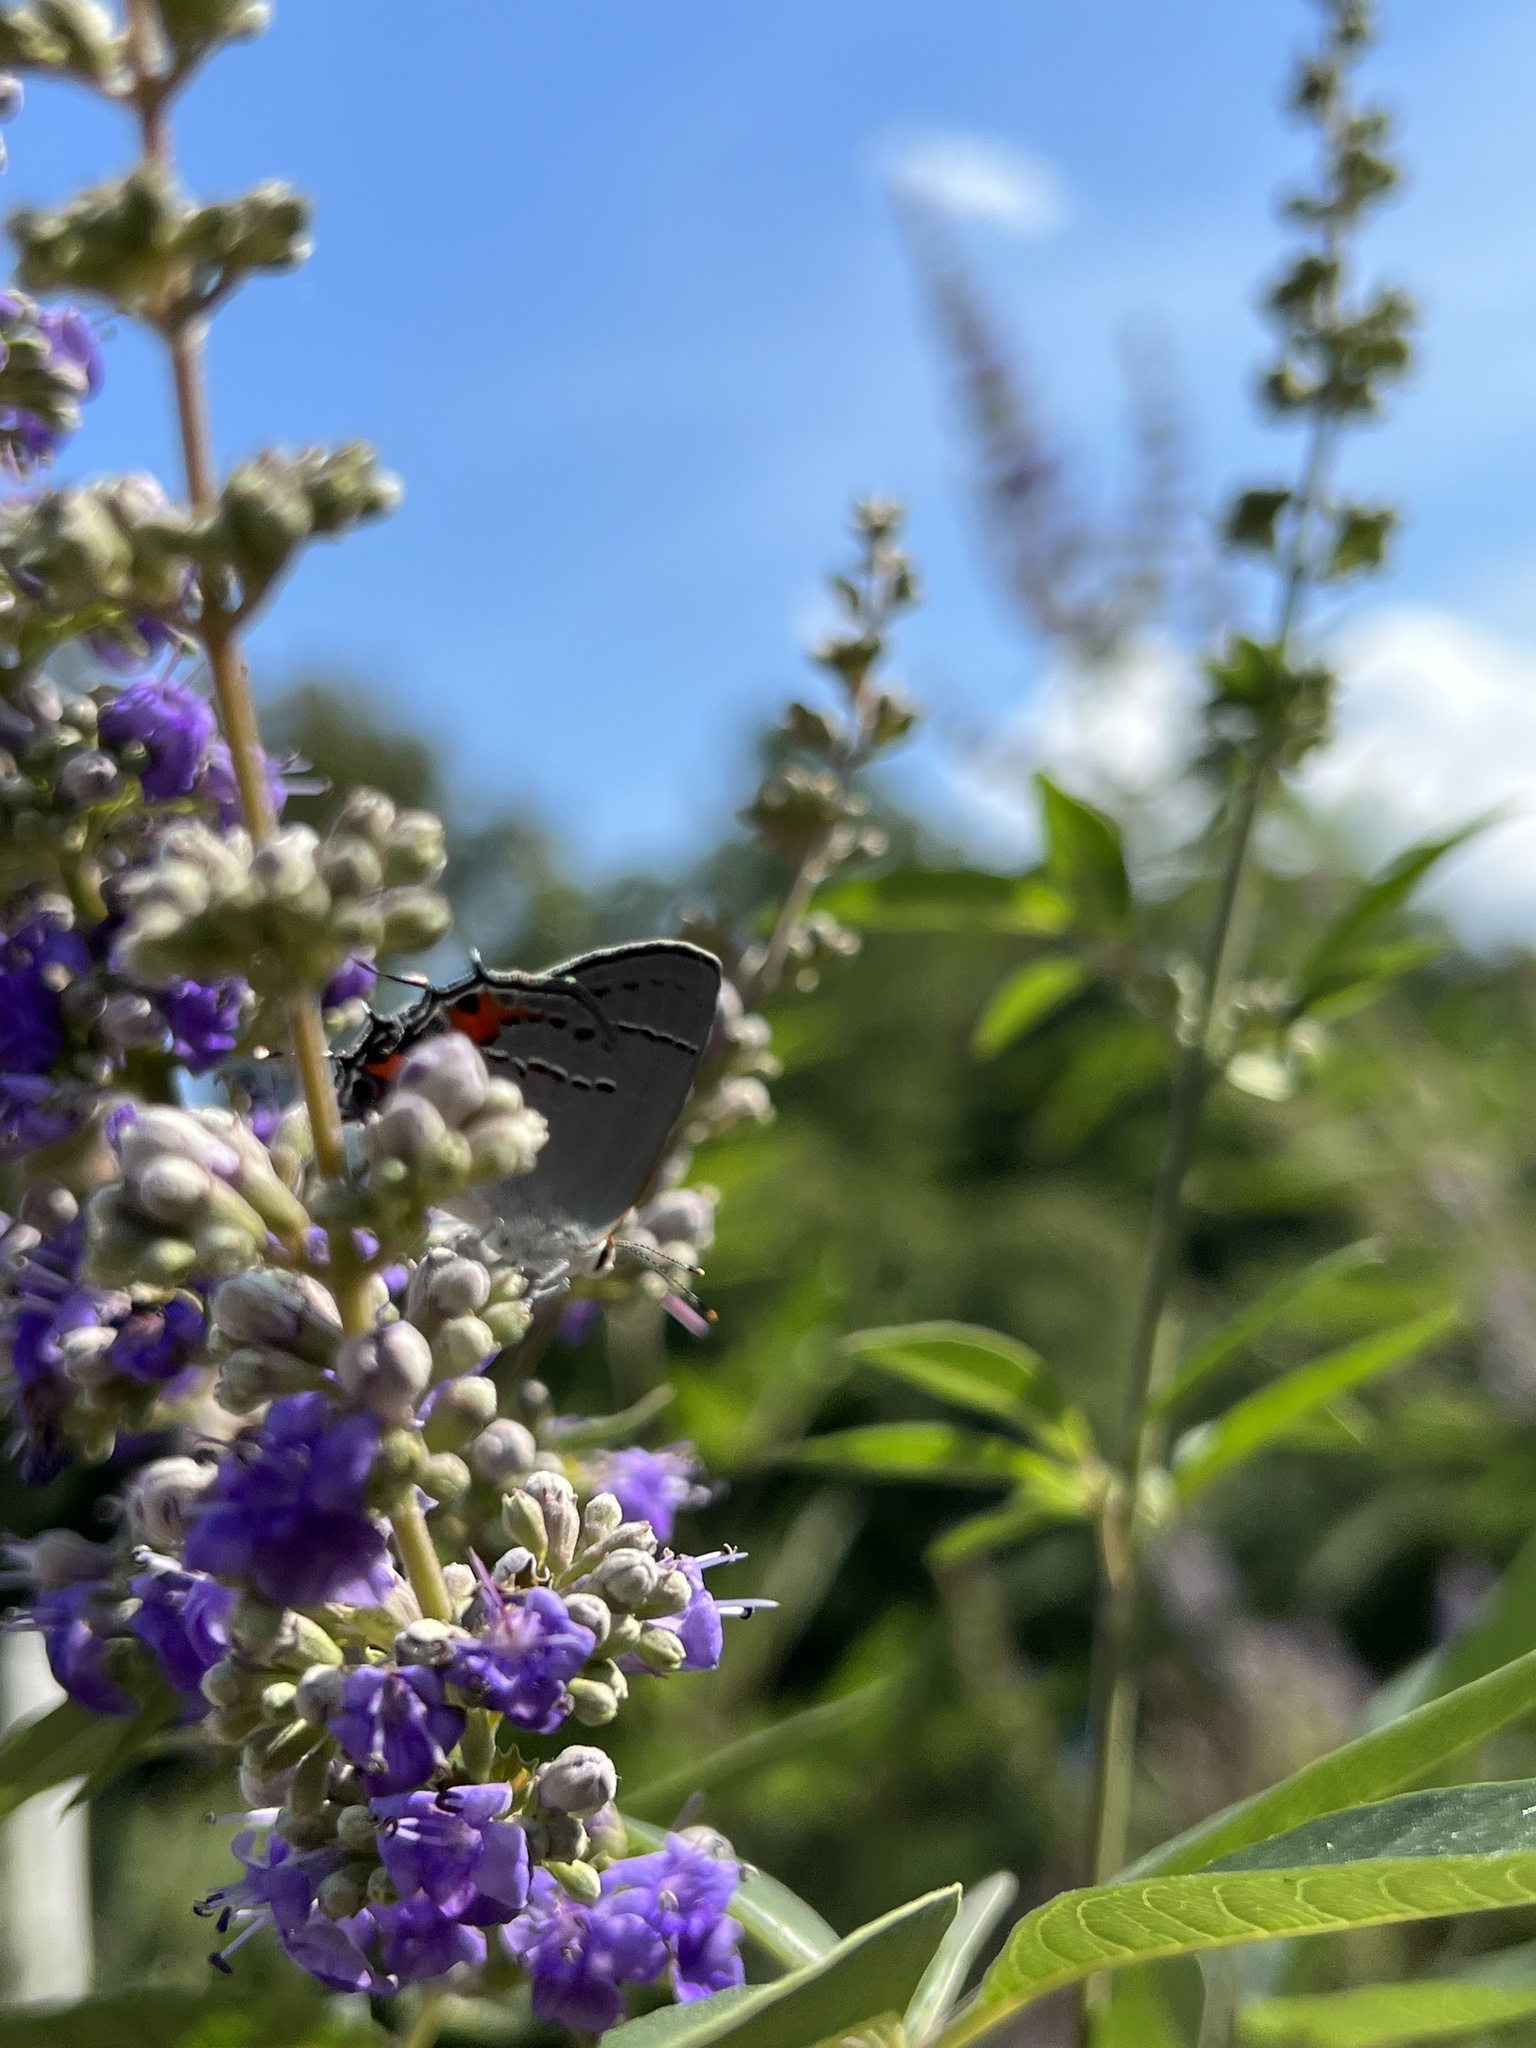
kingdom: Animalia
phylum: Arthropoda
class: Insecta
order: Lepidoptera
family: Lycaenidae
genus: Strymon
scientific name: Strymon melinus
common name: Gray hairstreak
